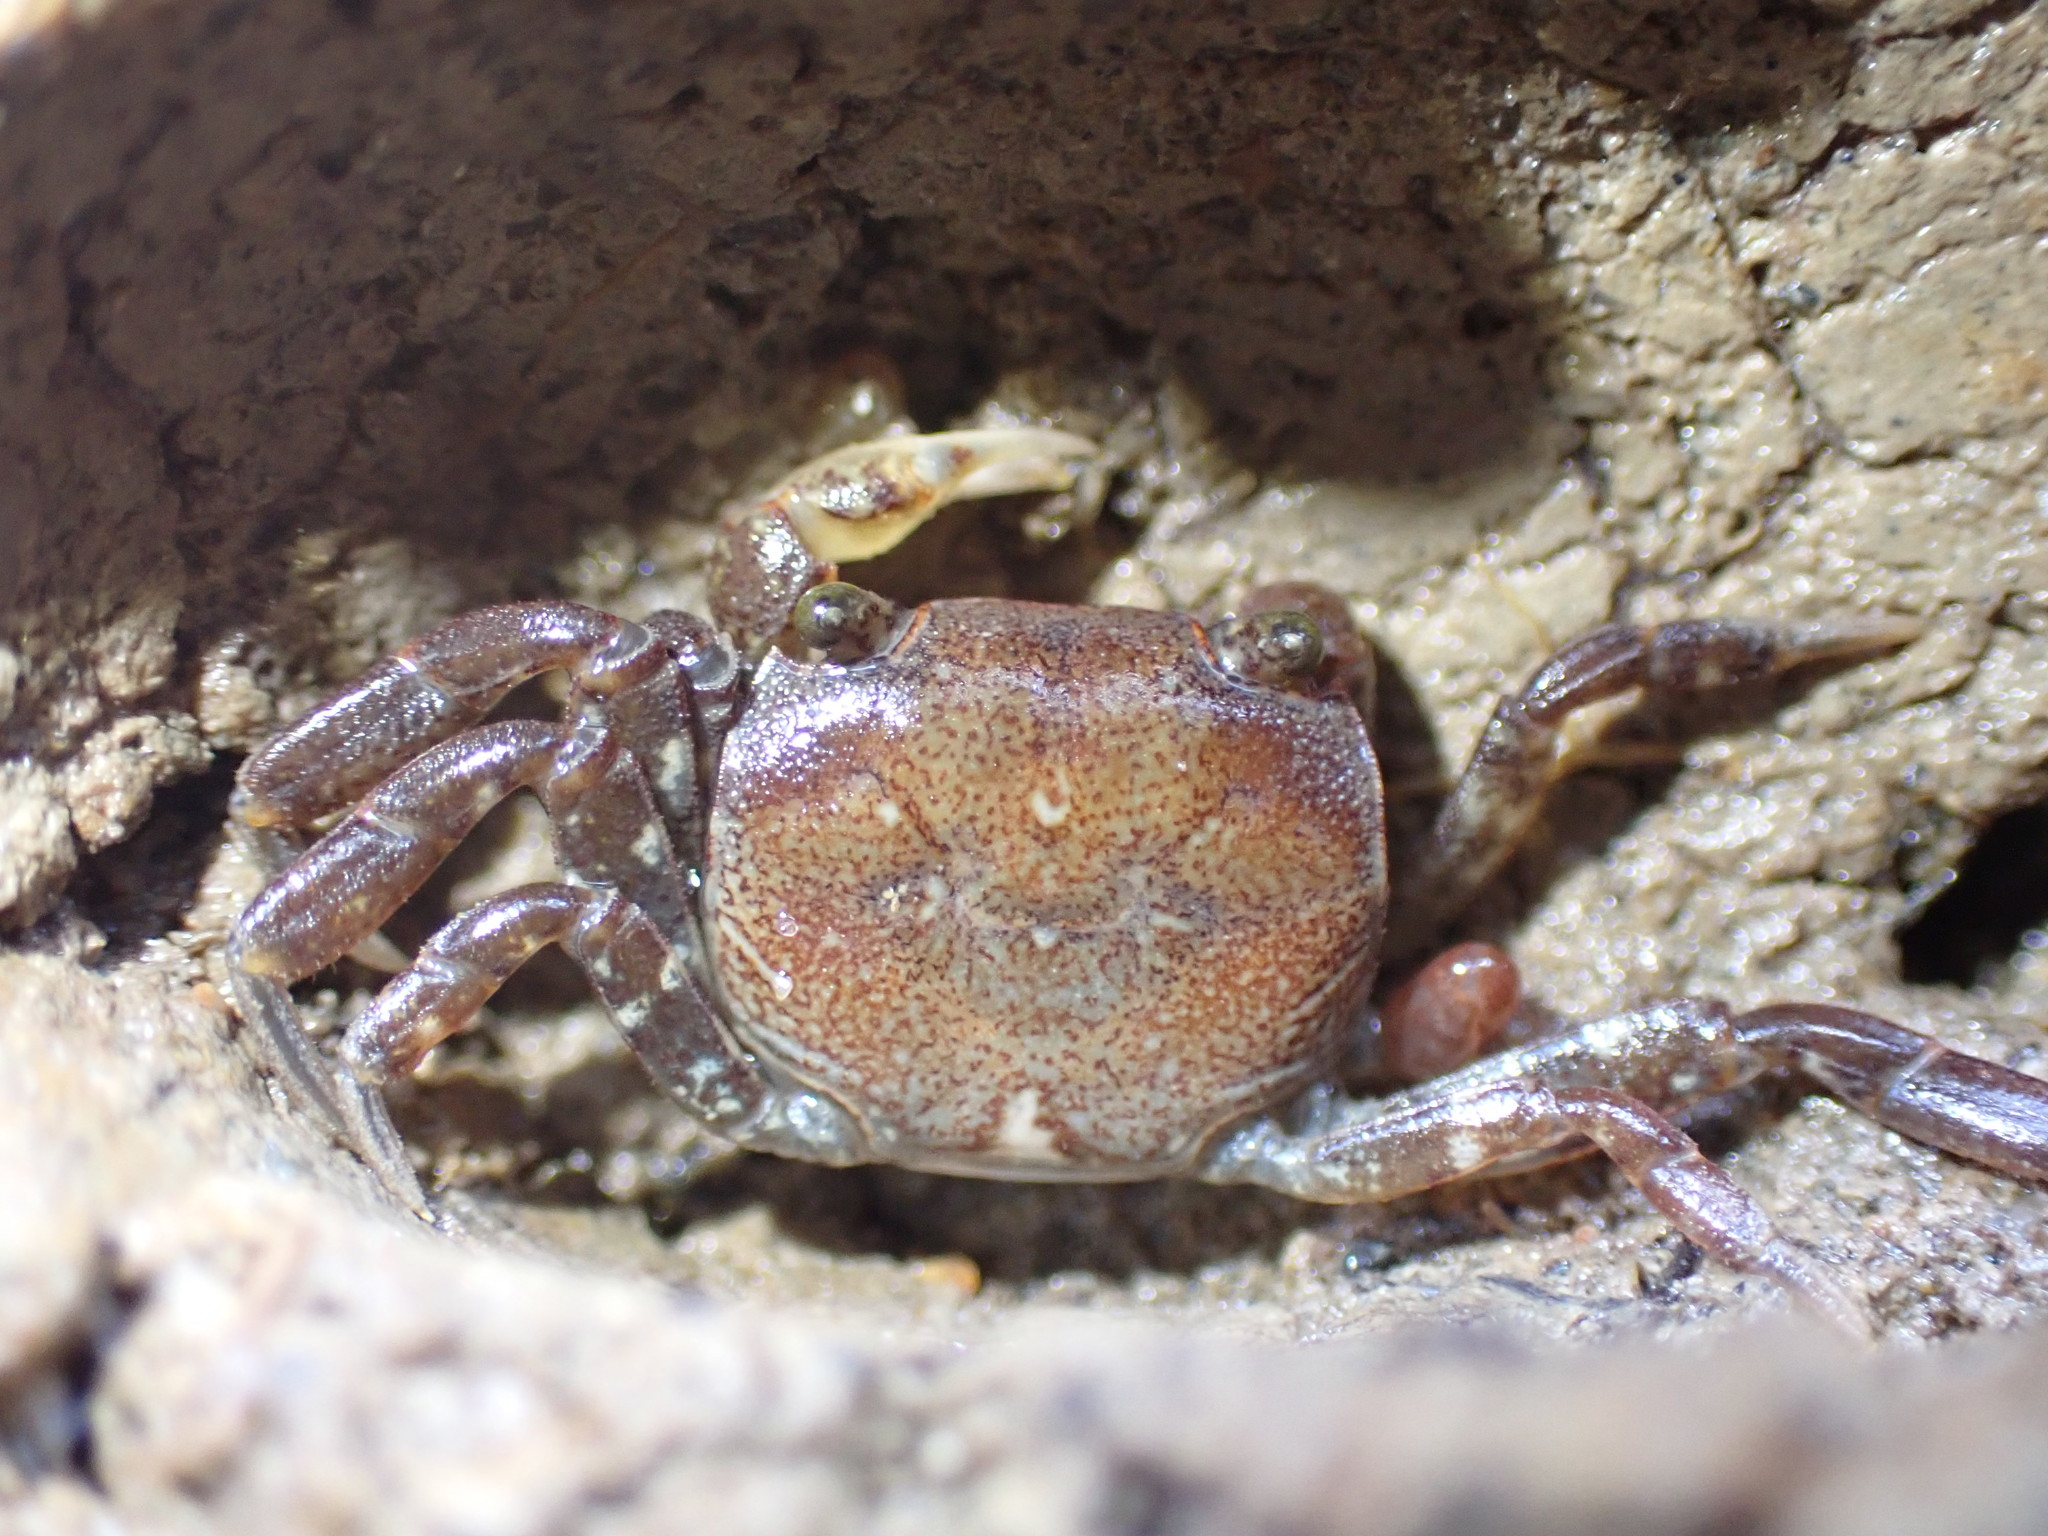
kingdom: Animalia
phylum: Arthropoda
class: Malacostraca
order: Decapoda
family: Varunidae
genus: Cyclograpsus
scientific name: Cyclograpsus lavauxi
